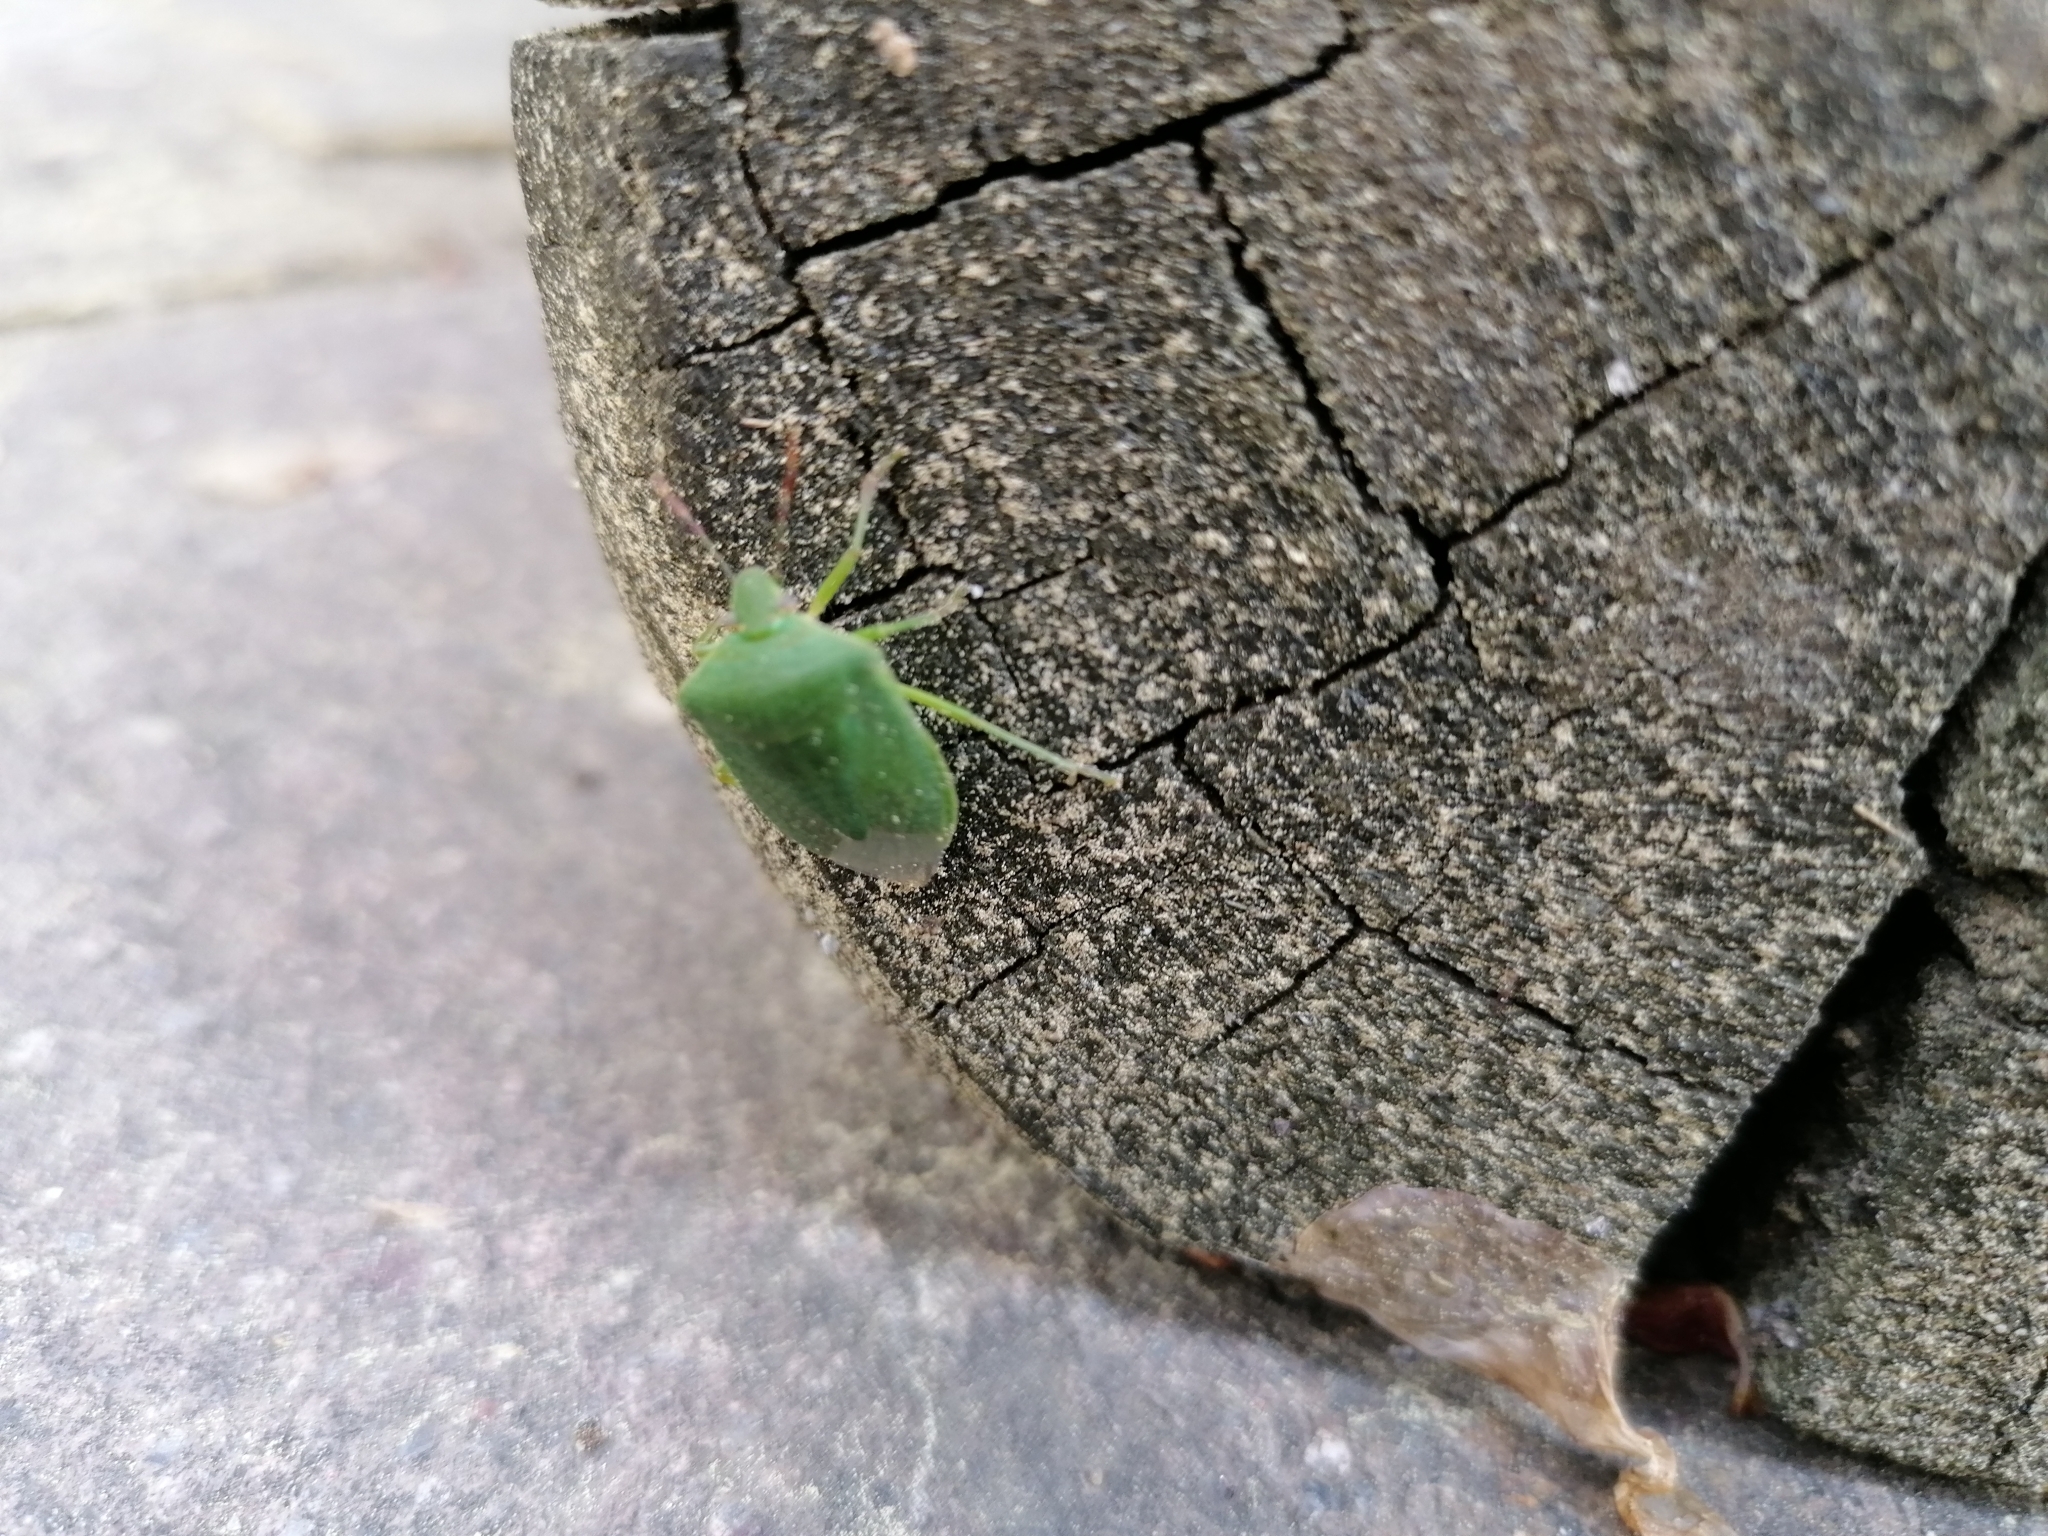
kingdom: Animalia
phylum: Arthropoda
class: Insecta
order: Hemiptera
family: Pentatomidae
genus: Nezara
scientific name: Nezara viridula
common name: Southern green stink bug
